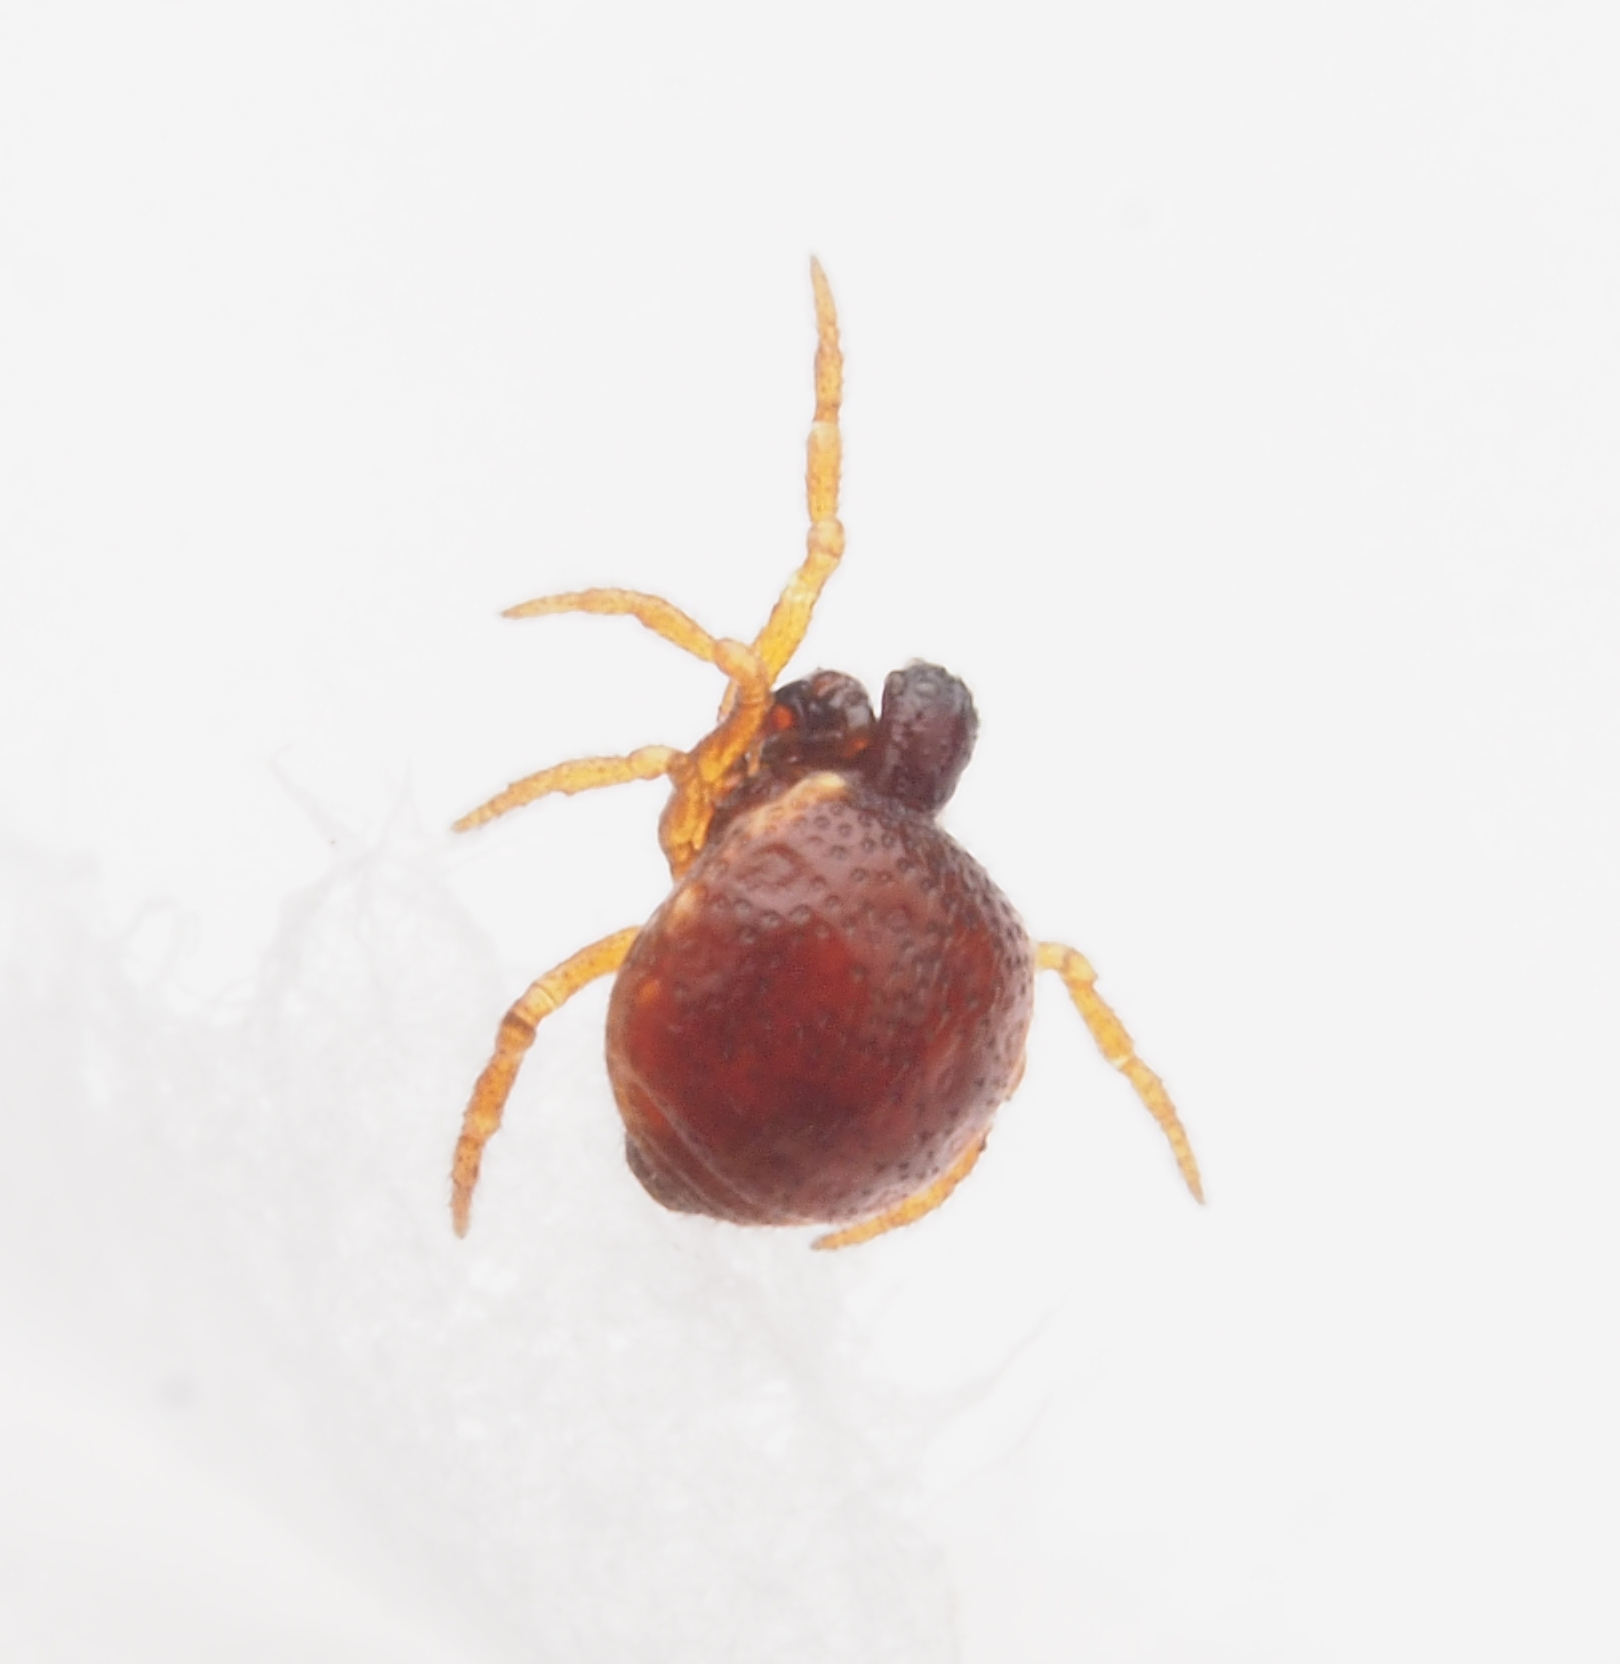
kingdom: Animalia
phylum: Arthropoda
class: Arachnida
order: Araneae
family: Theridiidae
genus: Phoroncidia
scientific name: Phoroncidia
